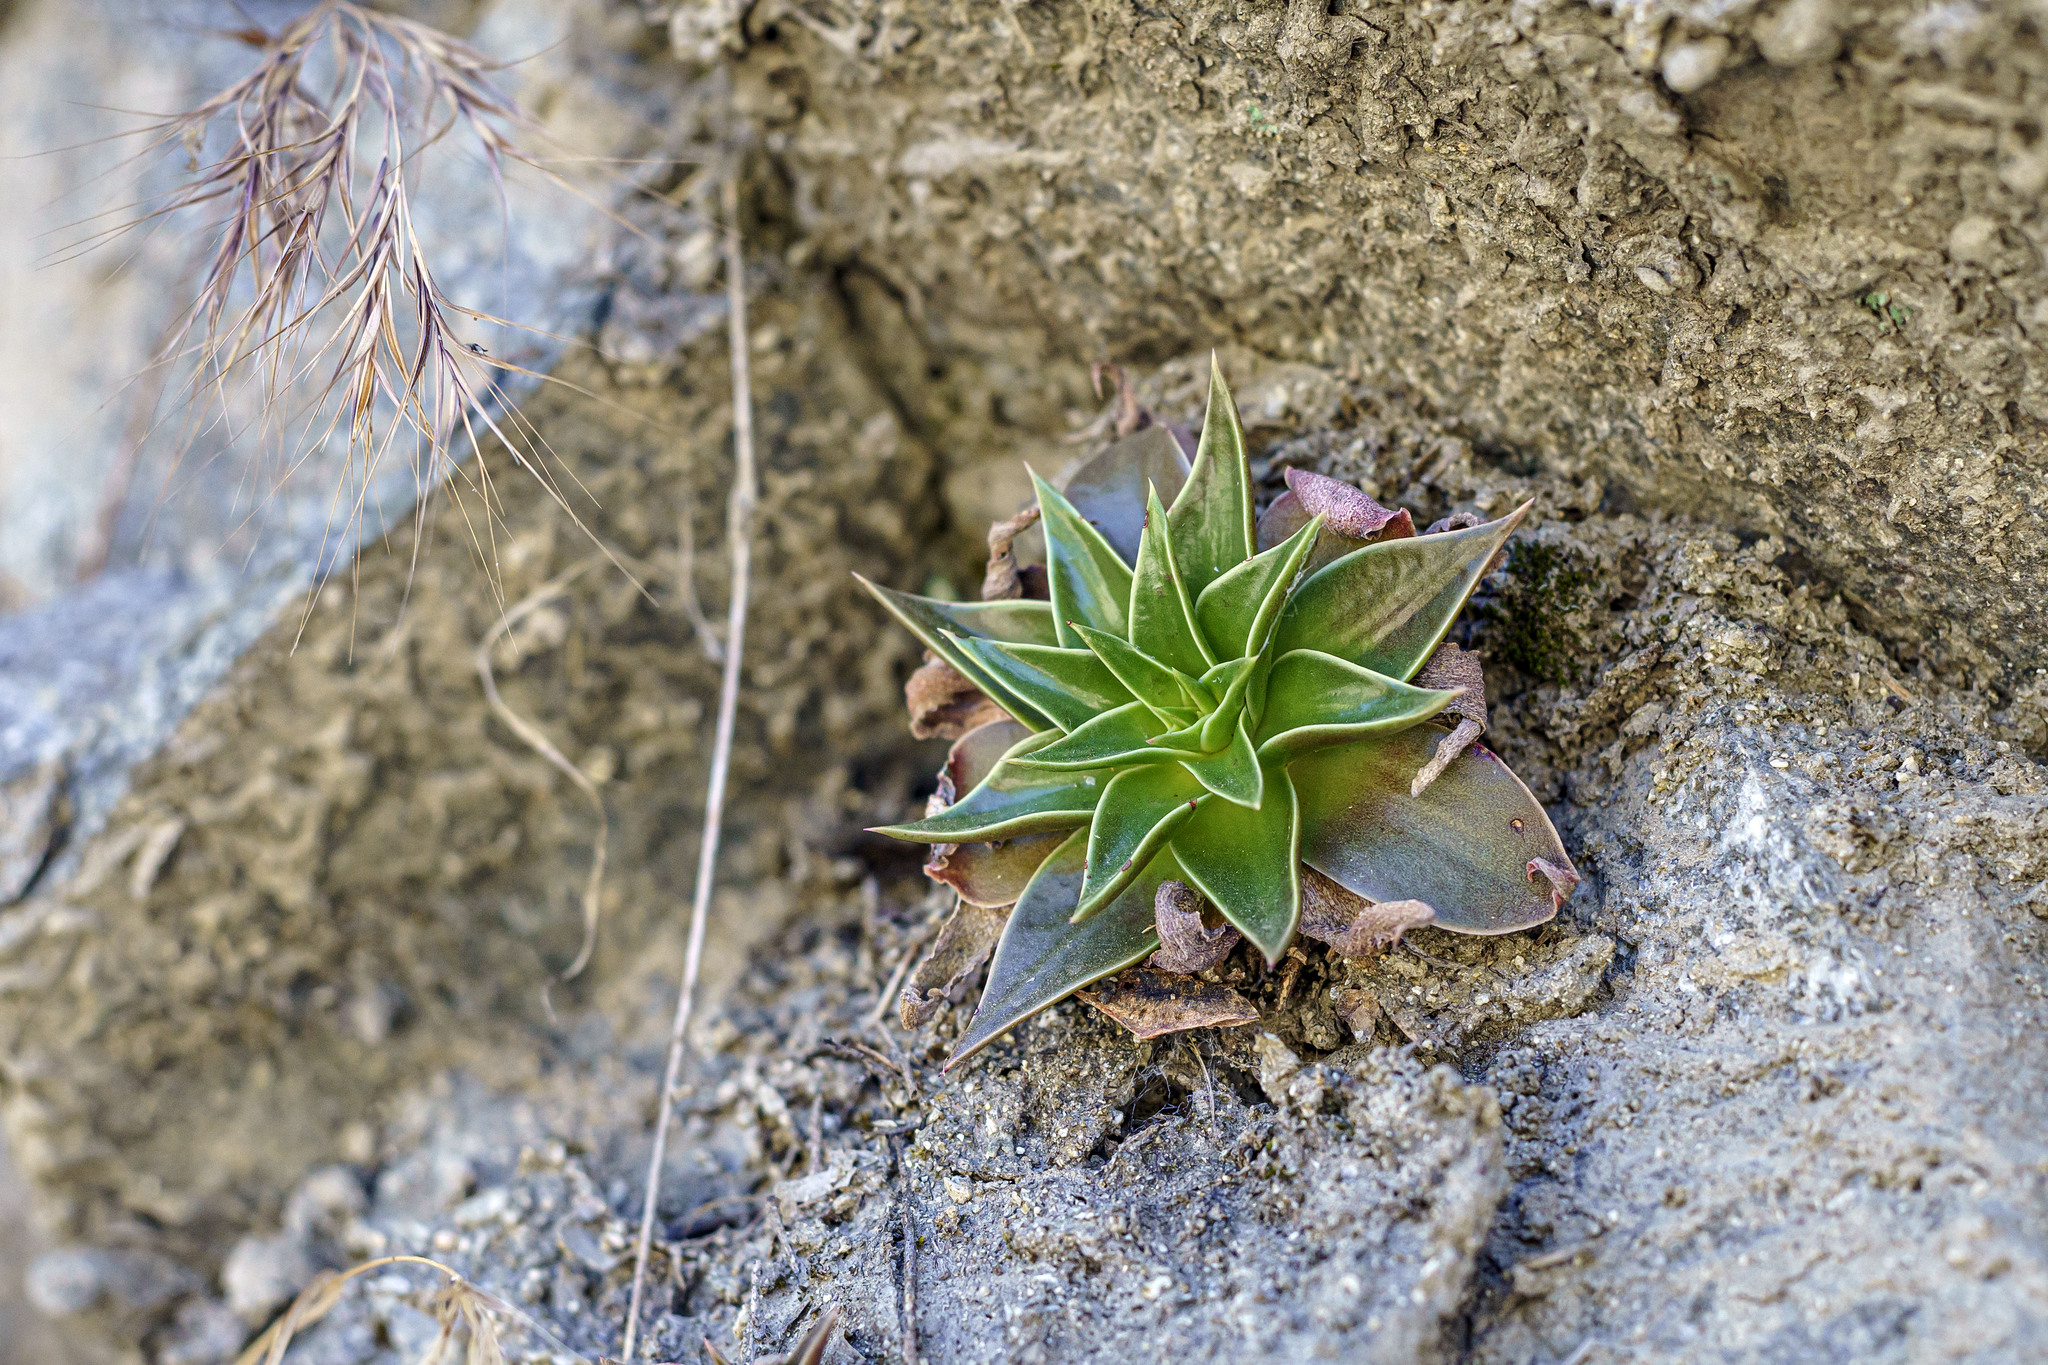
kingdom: Plantae
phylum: Tracheophyta
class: Magnoliopsida
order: Saxifragales
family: Crassulaceae
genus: Dudleya
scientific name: Dudleya lanceolata
